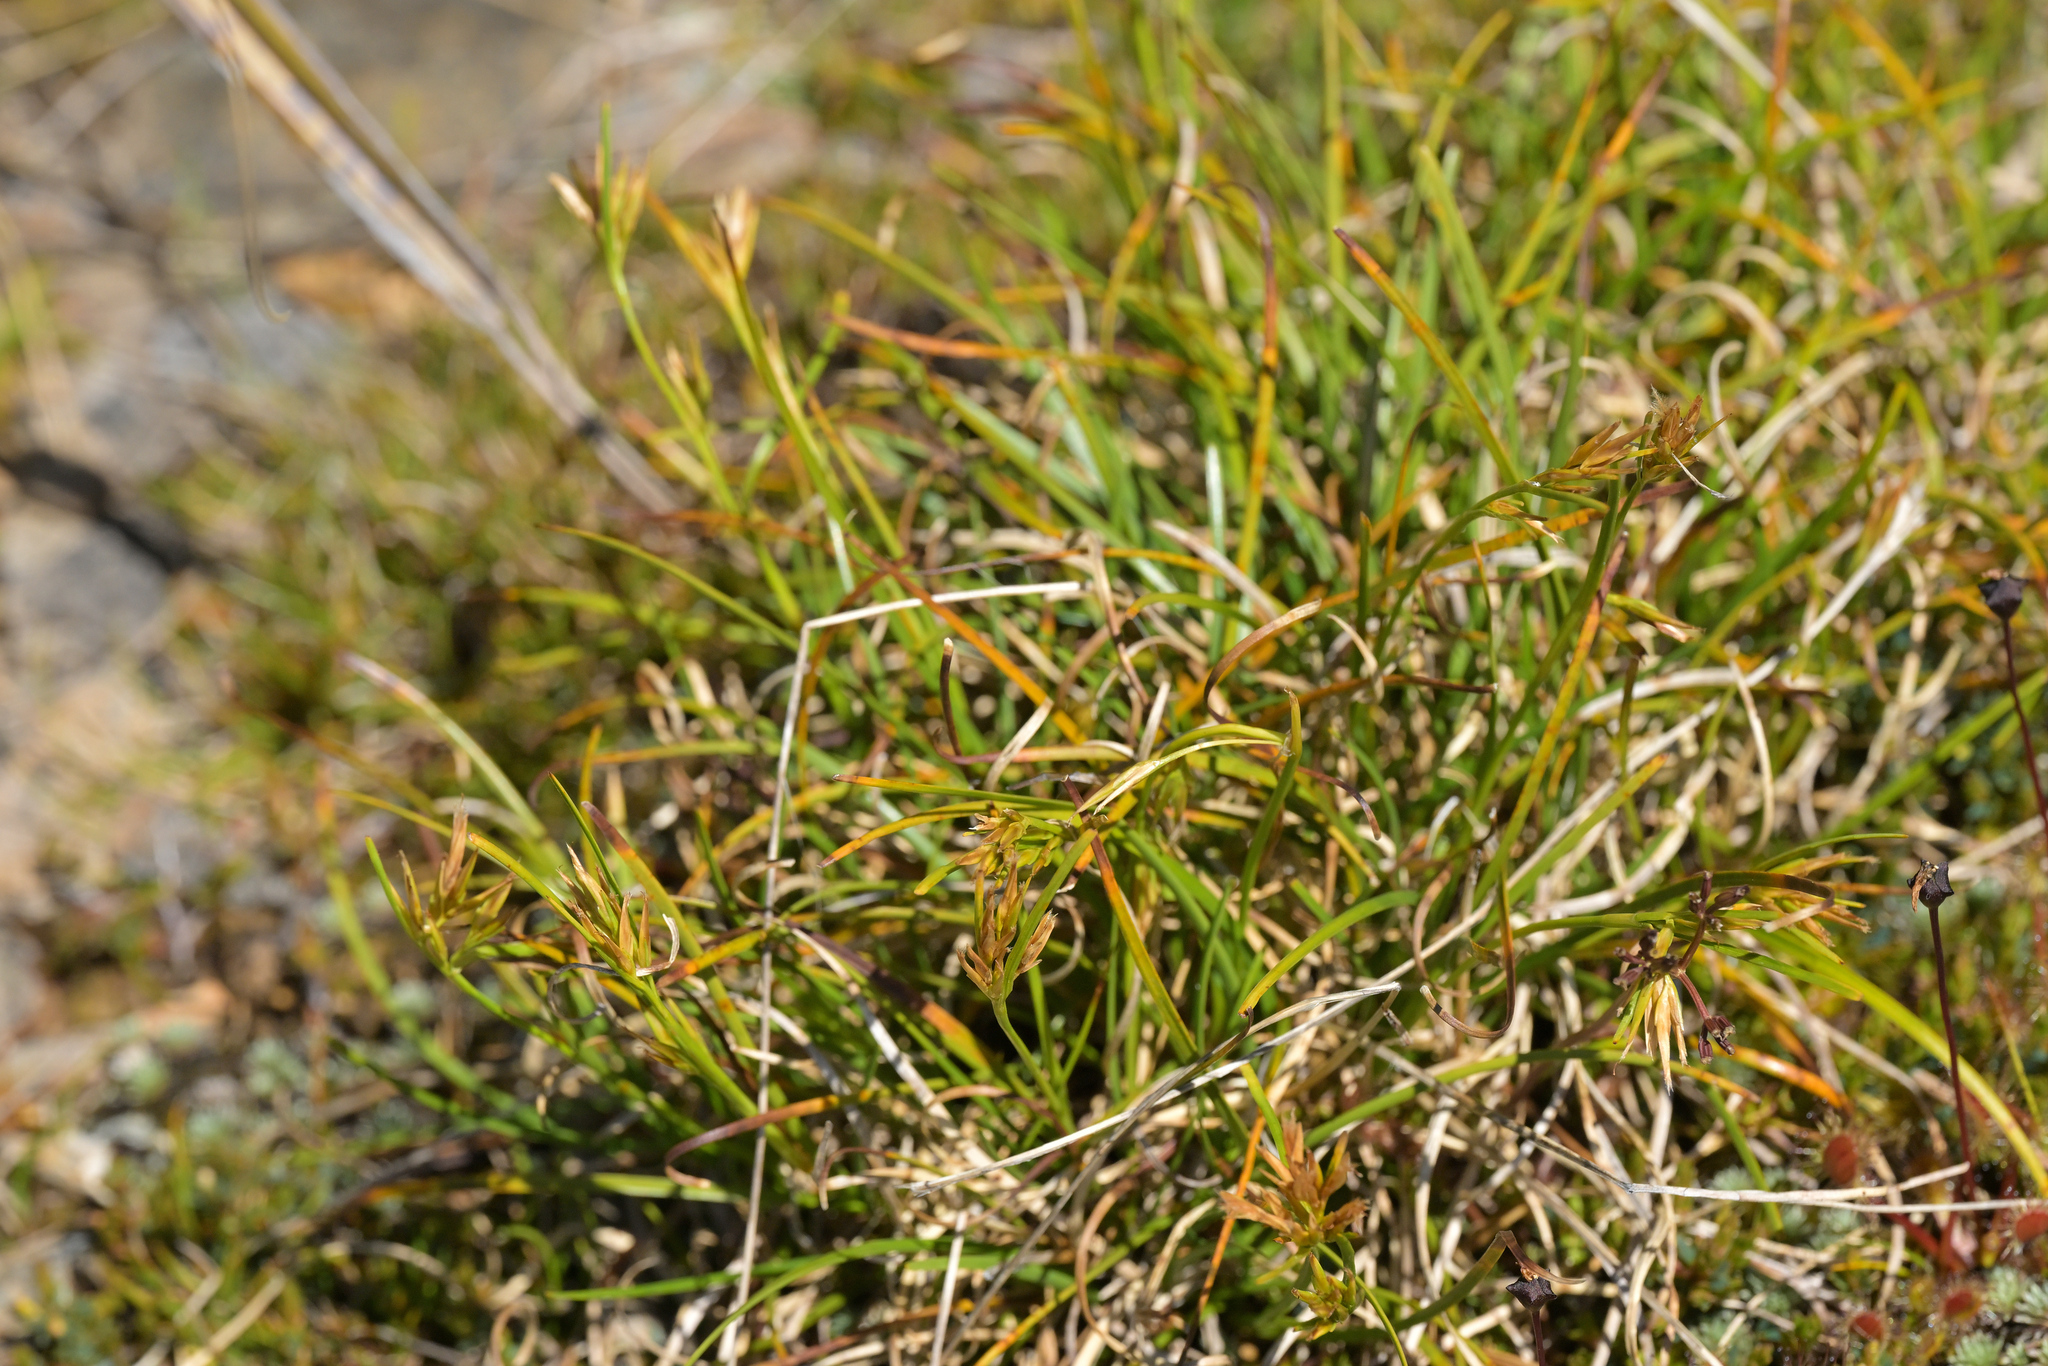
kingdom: Plantae
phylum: Tracheophyta
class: Liliopsida
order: Poales
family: Cyperaceae
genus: Carpha
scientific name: Carpha alpina
